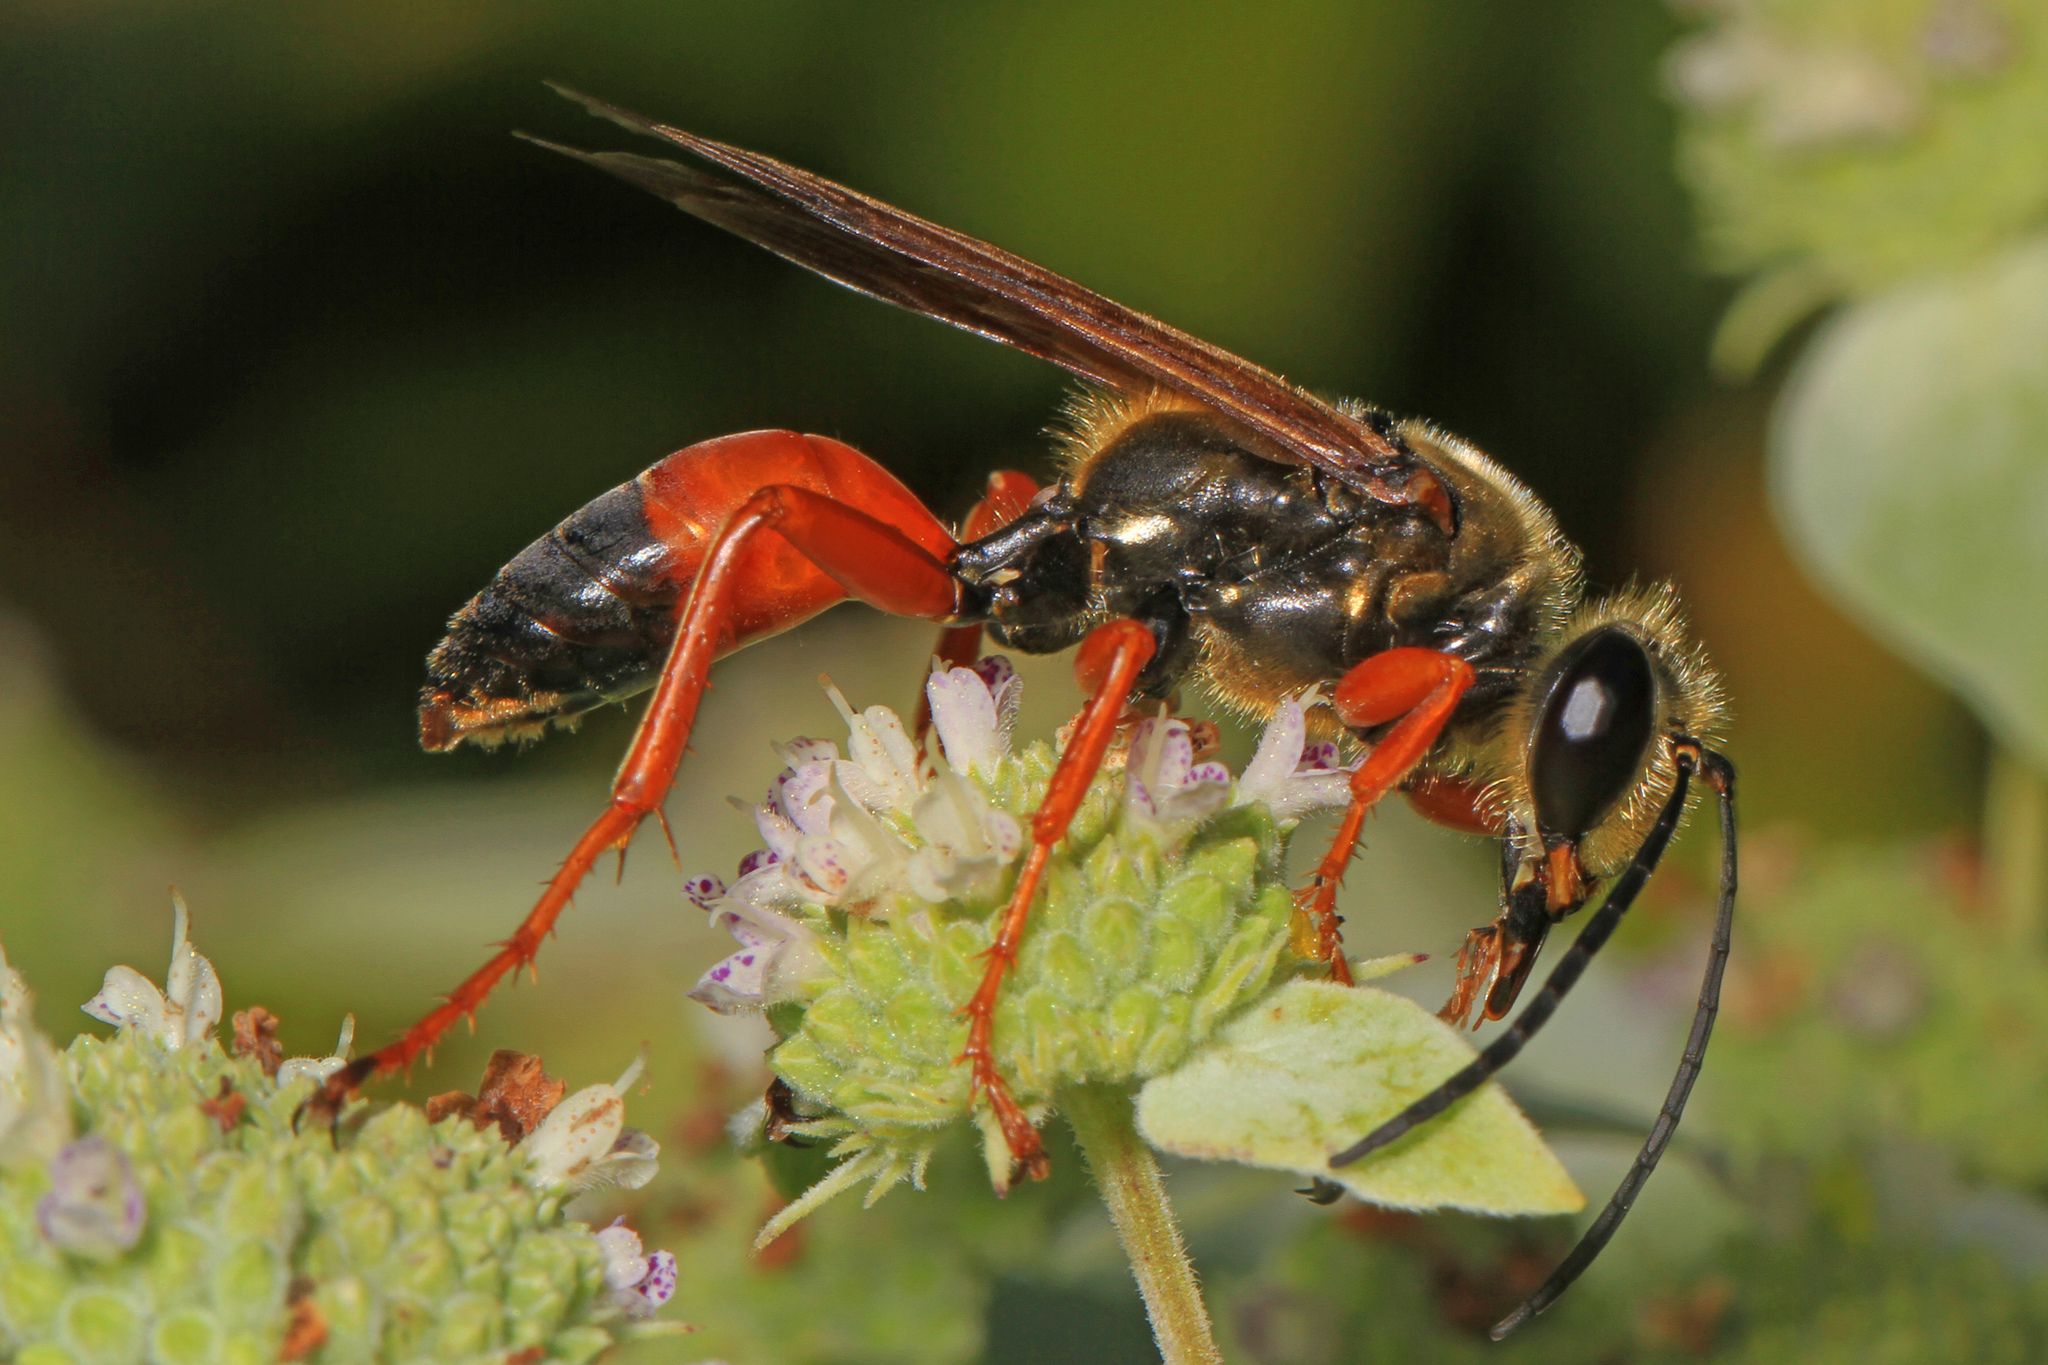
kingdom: Animalia
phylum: Arthropoda
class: Insecta
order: Hymenoptera
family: Sphecidae
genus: Sphex
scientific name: Sphex ichneumoneus
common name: Great golden digger wasp
